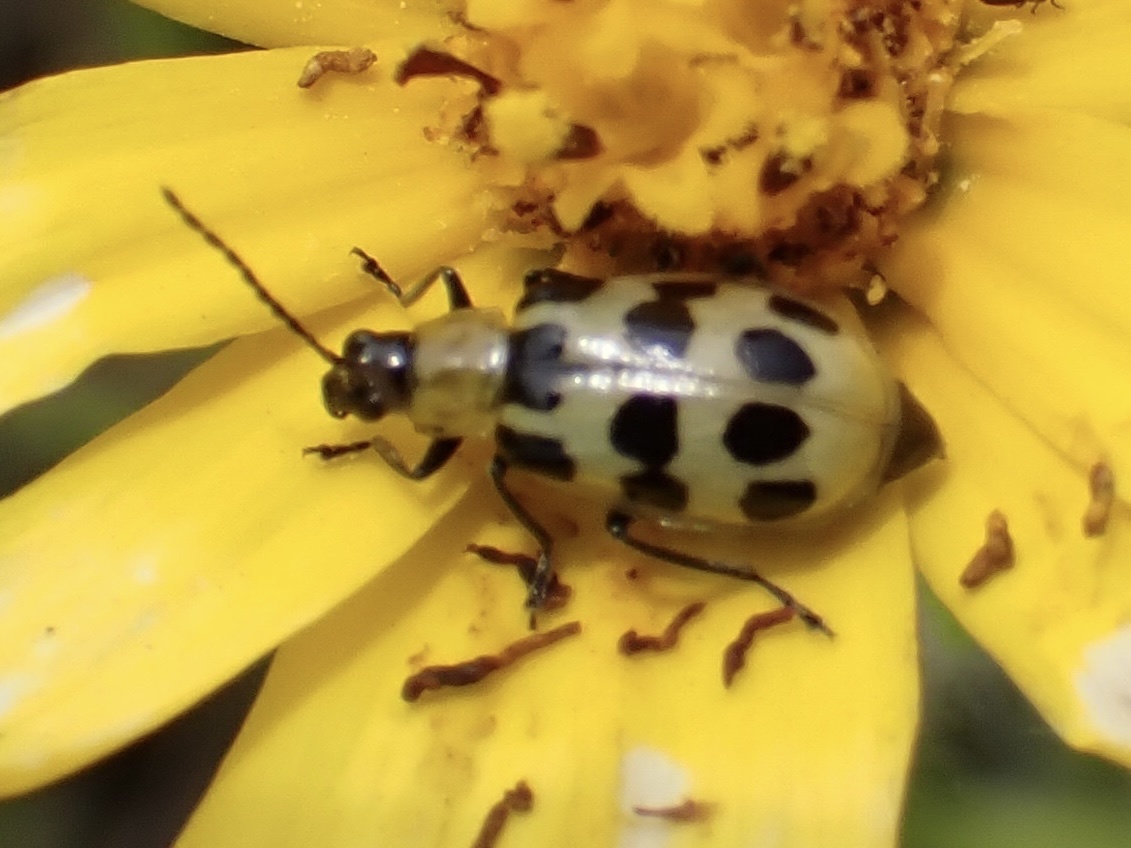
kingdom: Animalia
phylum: Arthropoda
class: Insecta
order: Coleoptera
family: Chrysomelidae
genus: Diabrotica
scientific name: Diabrotica undecimpunctata
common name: Spotted cucumber beetle
